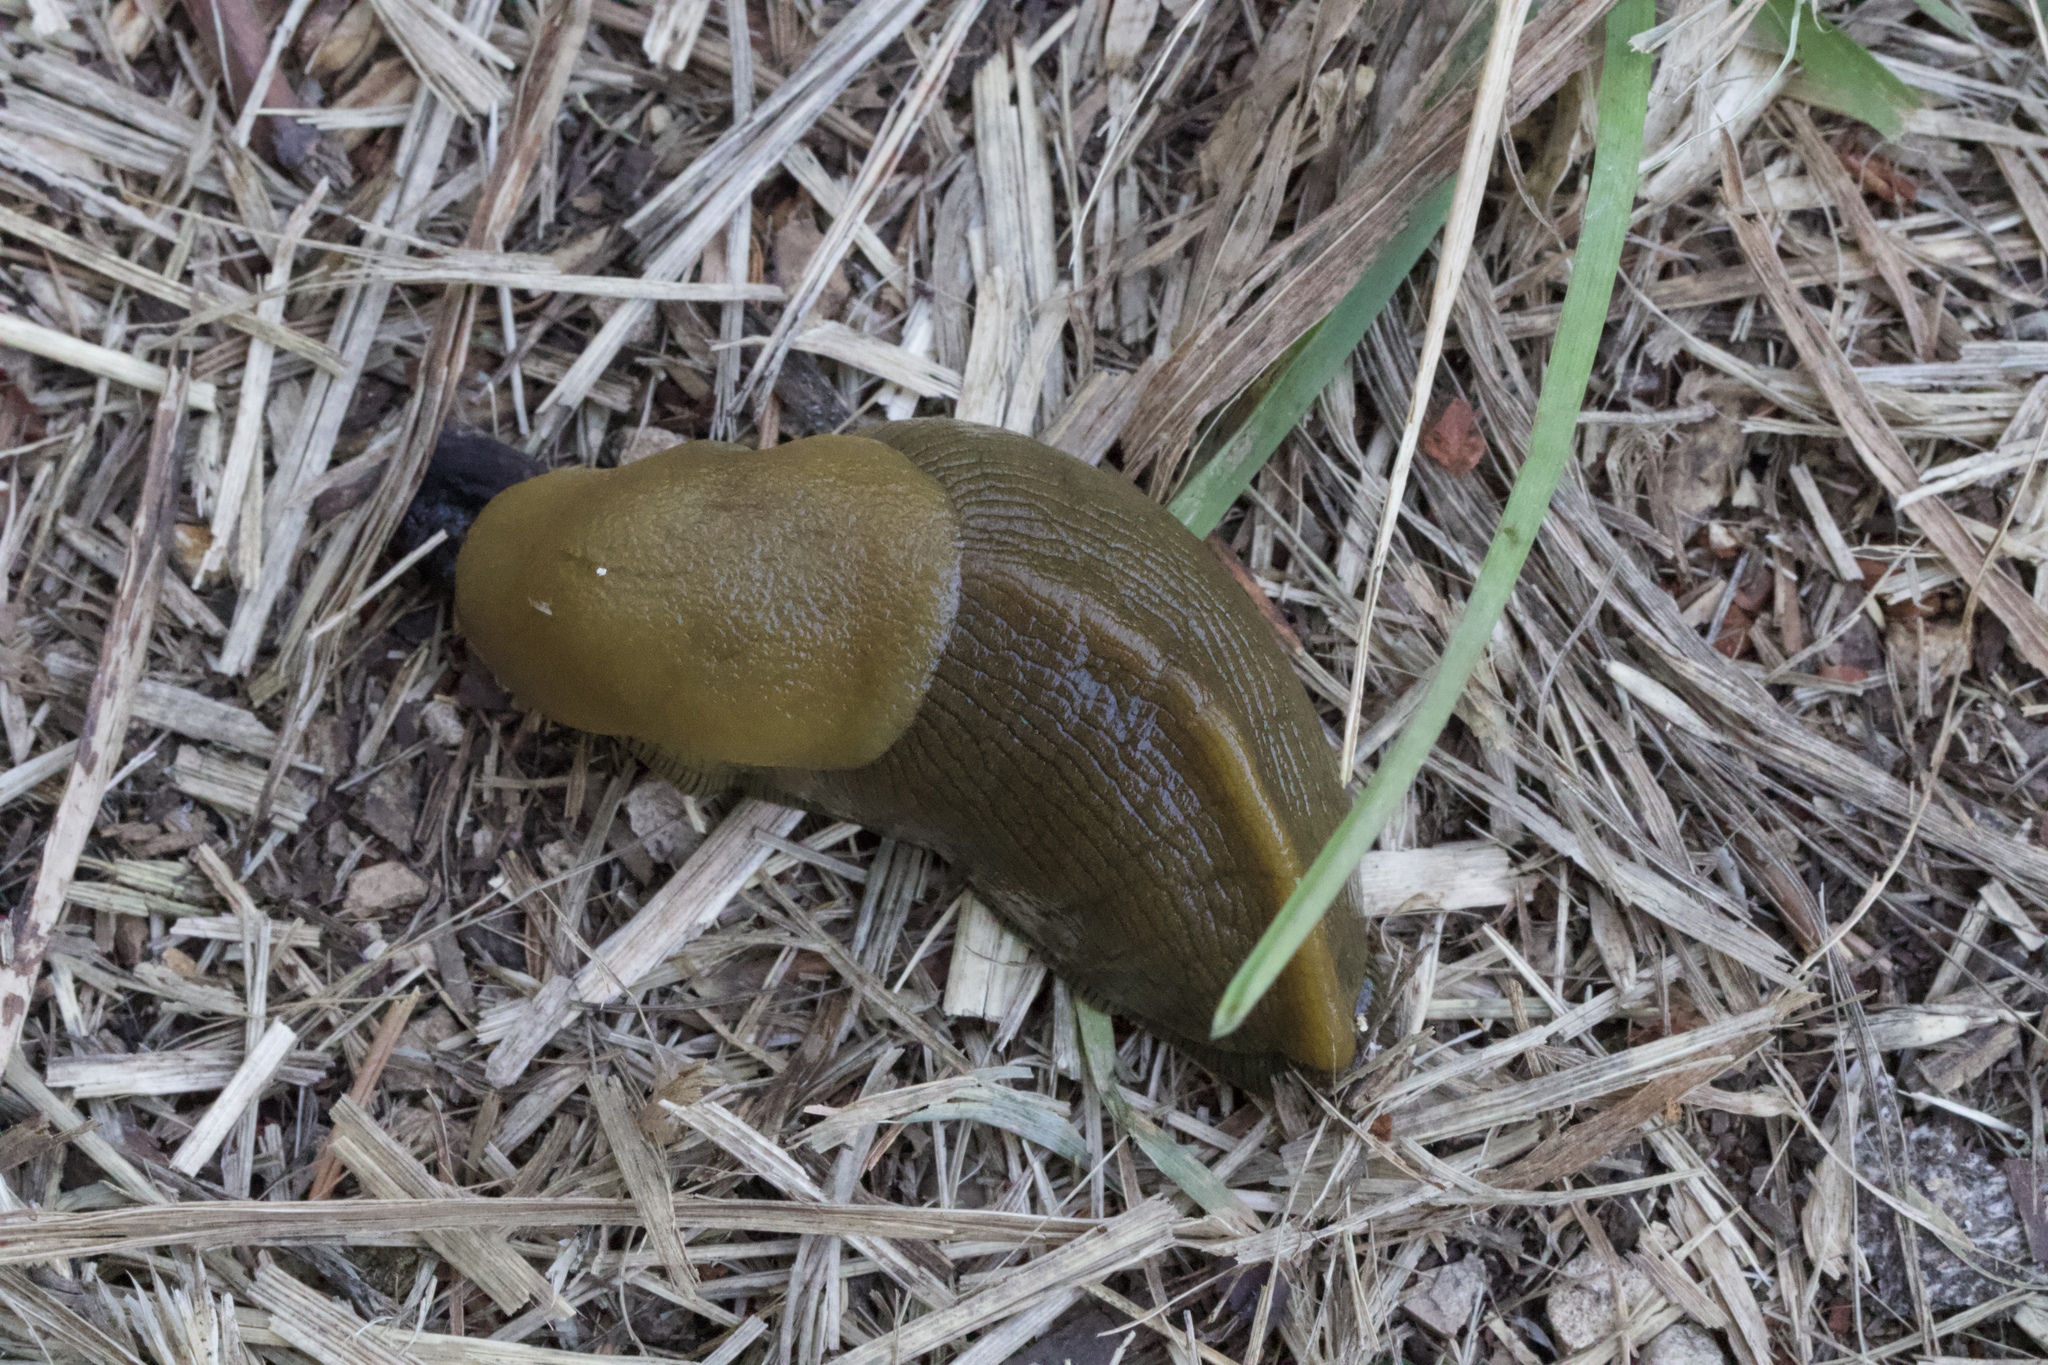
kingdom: Animalia
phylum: Mollusca
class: Gastropoda
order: Stylommatophora
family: Ariolimacidae
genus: Ariolimax
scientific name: Ariolimax buttoni
